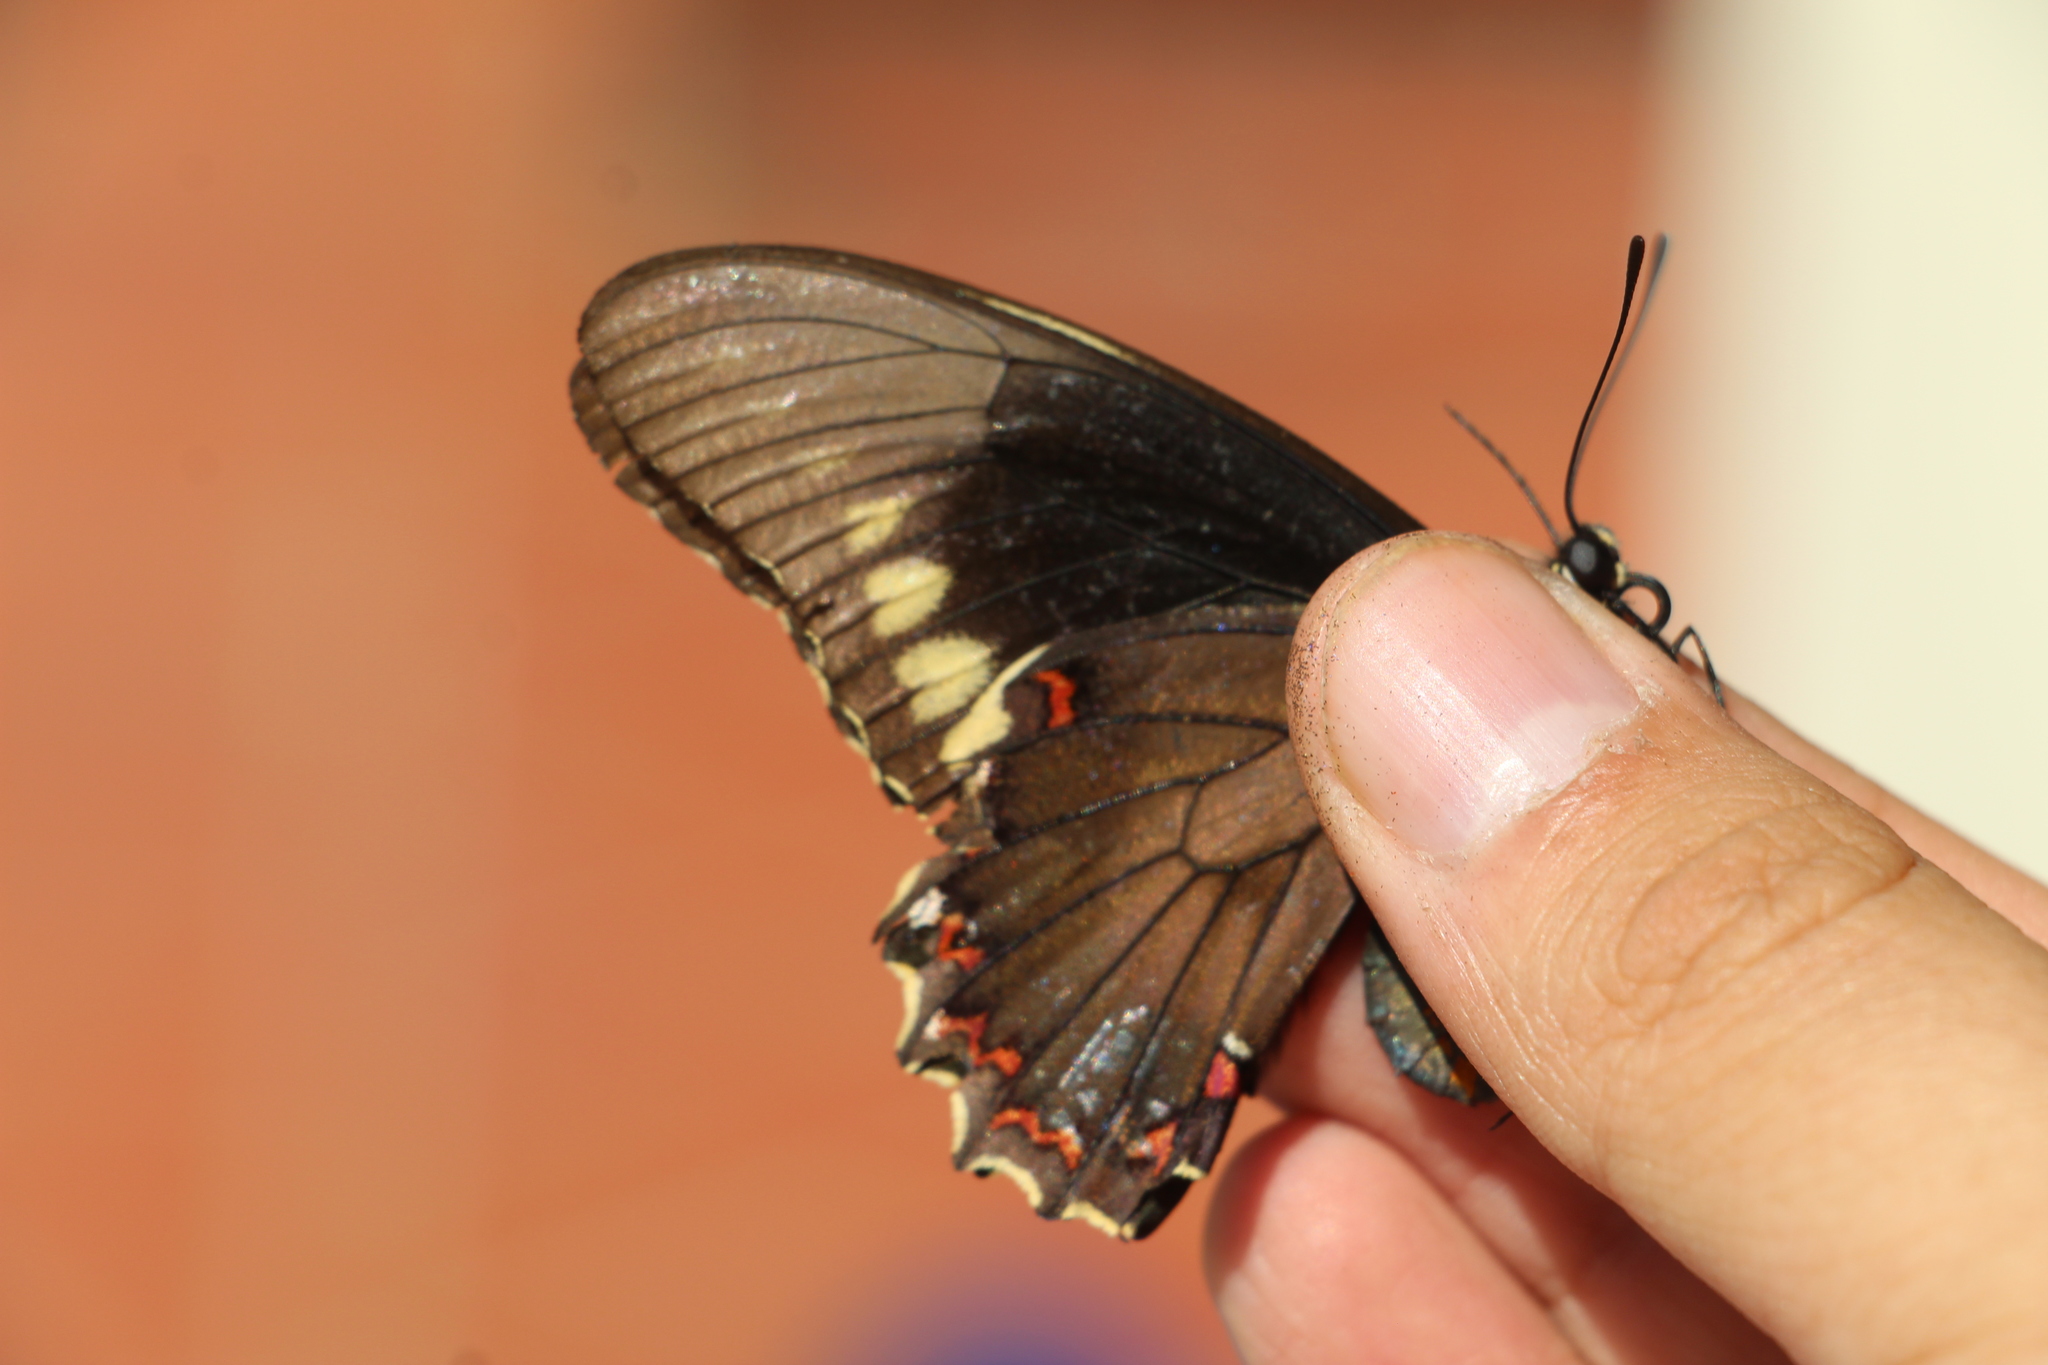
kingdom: Animalia
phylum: Arthropoda
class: Insecta
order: Lepidoptera
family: Papilionidae
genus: Battus
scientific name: Battus polydamas
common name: Polydamas swallowtail
